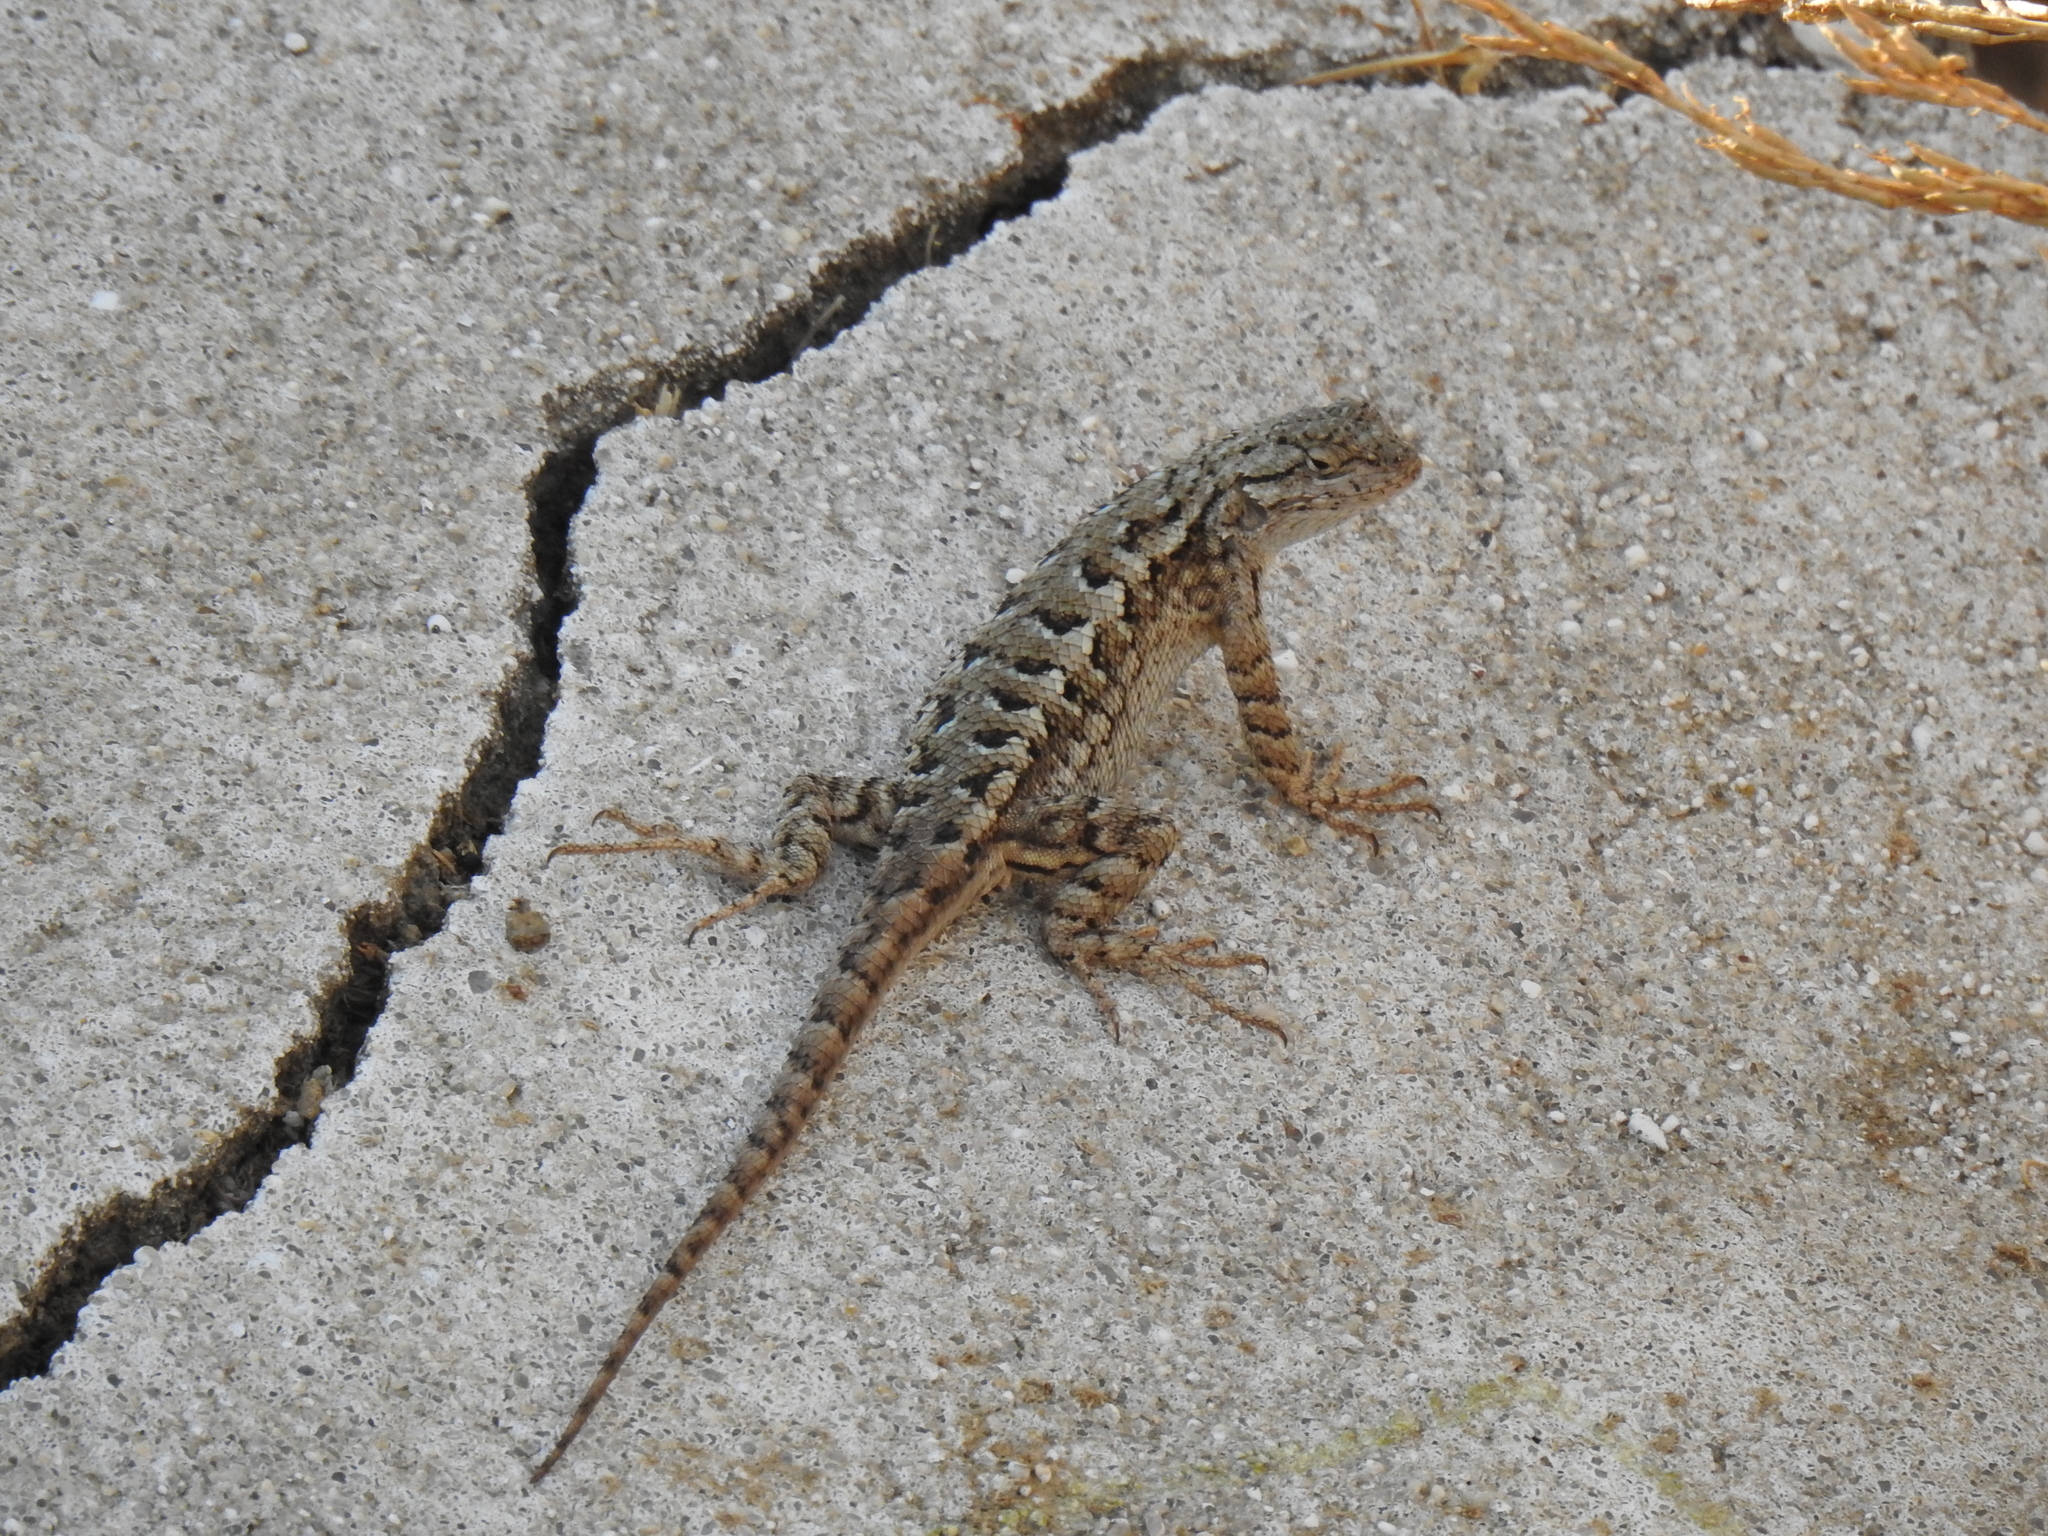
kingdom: Animalia
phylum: Chordata
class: Squamata
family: Phrynosomatidae
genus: Sceloporus
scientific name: Sceloporus occidentalis
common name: Western fence lizard
